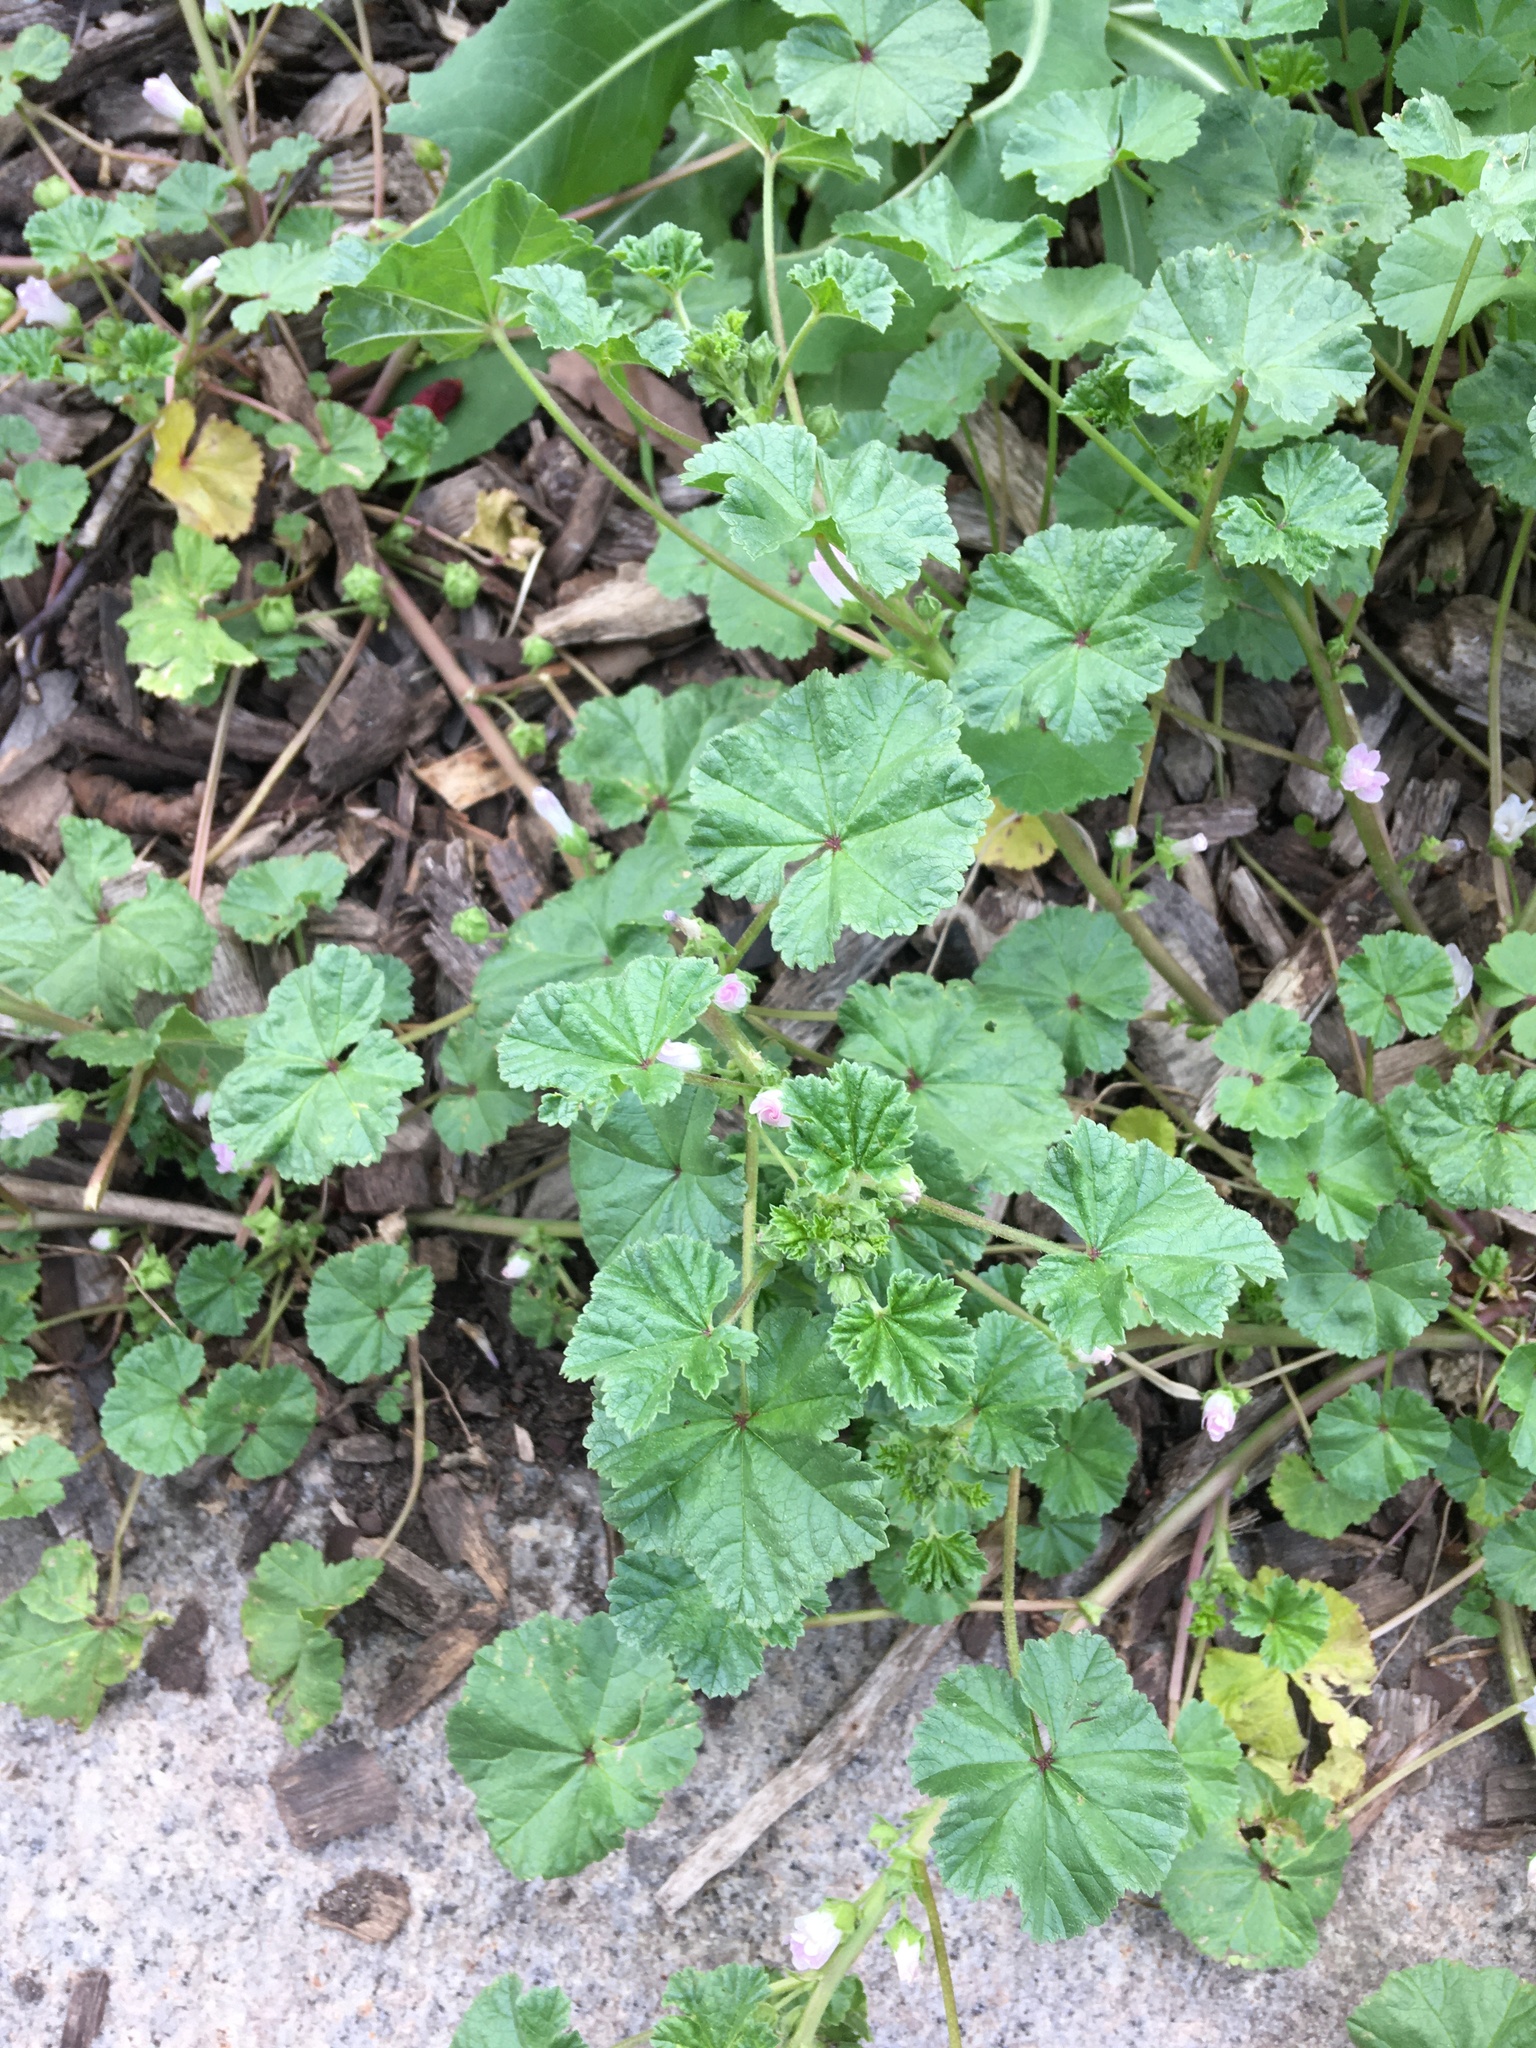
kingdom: Plantae
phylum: Tracheophyta
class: Magnoliopsida
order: Malvales
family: Malvaceae
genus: Malva
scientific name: Malva neglecta
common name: Common mallow
